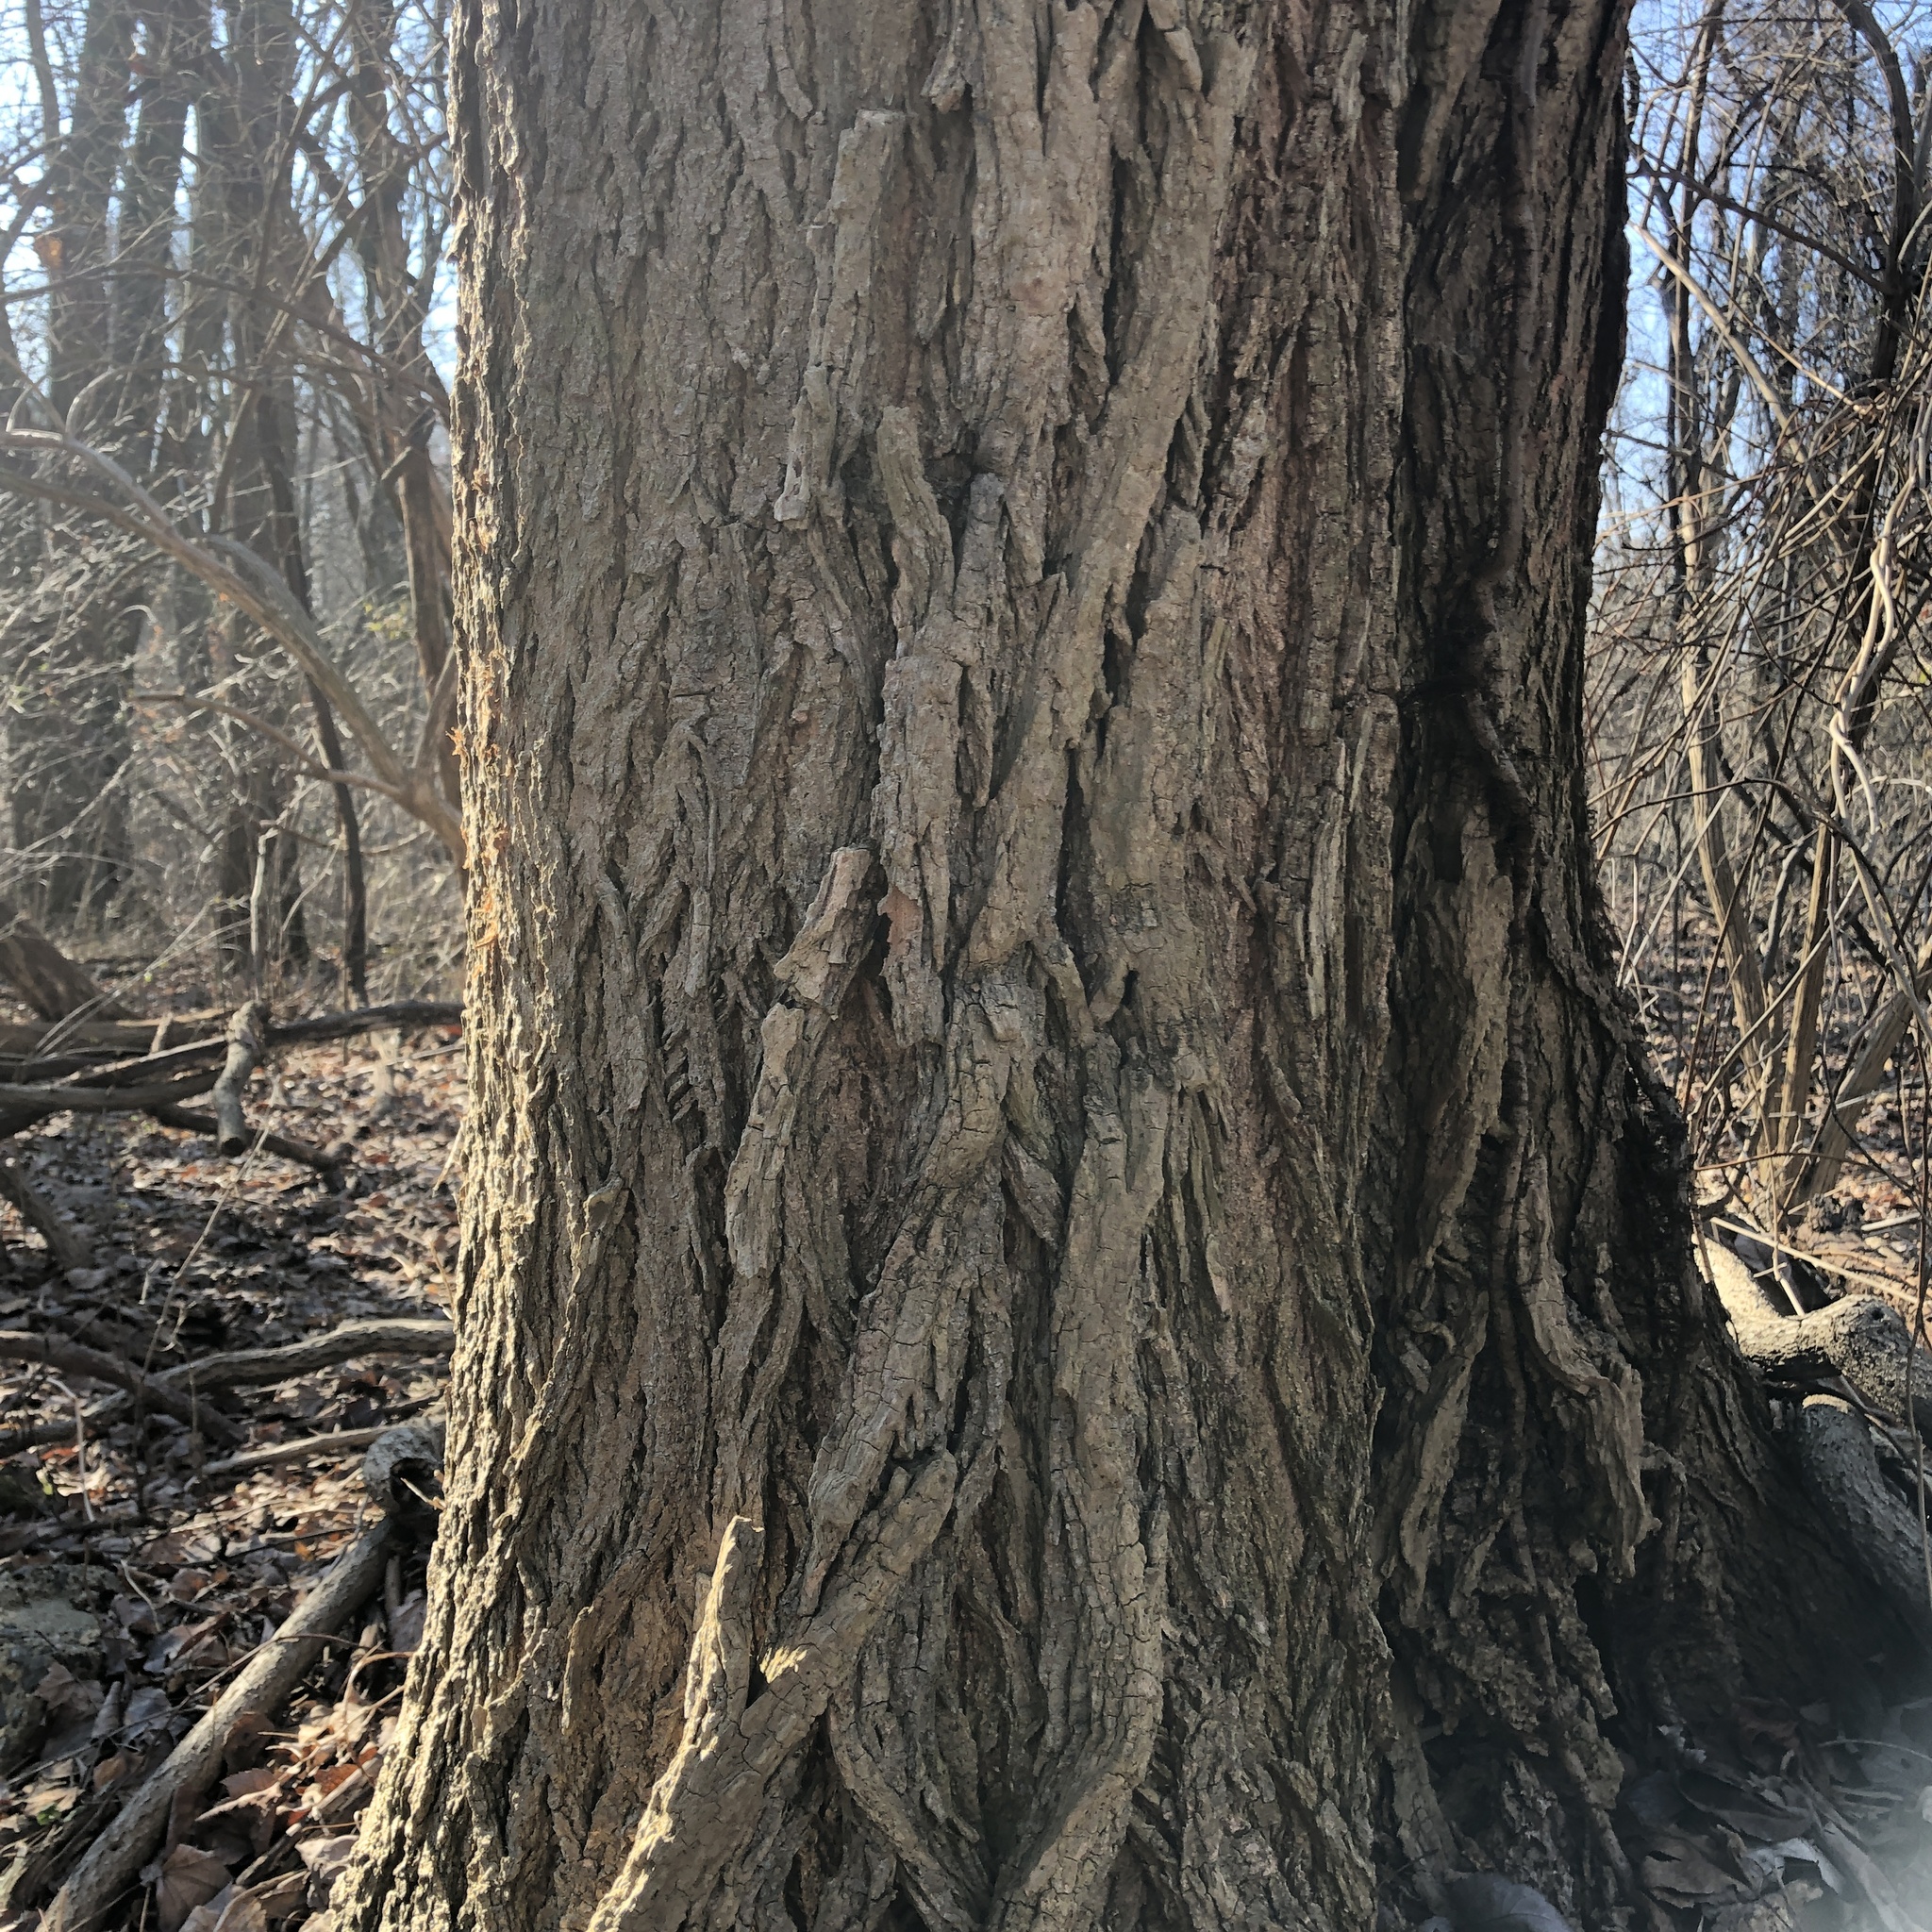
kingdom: Plantae
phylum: Tracheophyta
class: Magnoliopsida
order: Fabales
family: Fabaceae
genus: Robinia
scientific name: Robinia pseudoacacia
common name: Black locust
